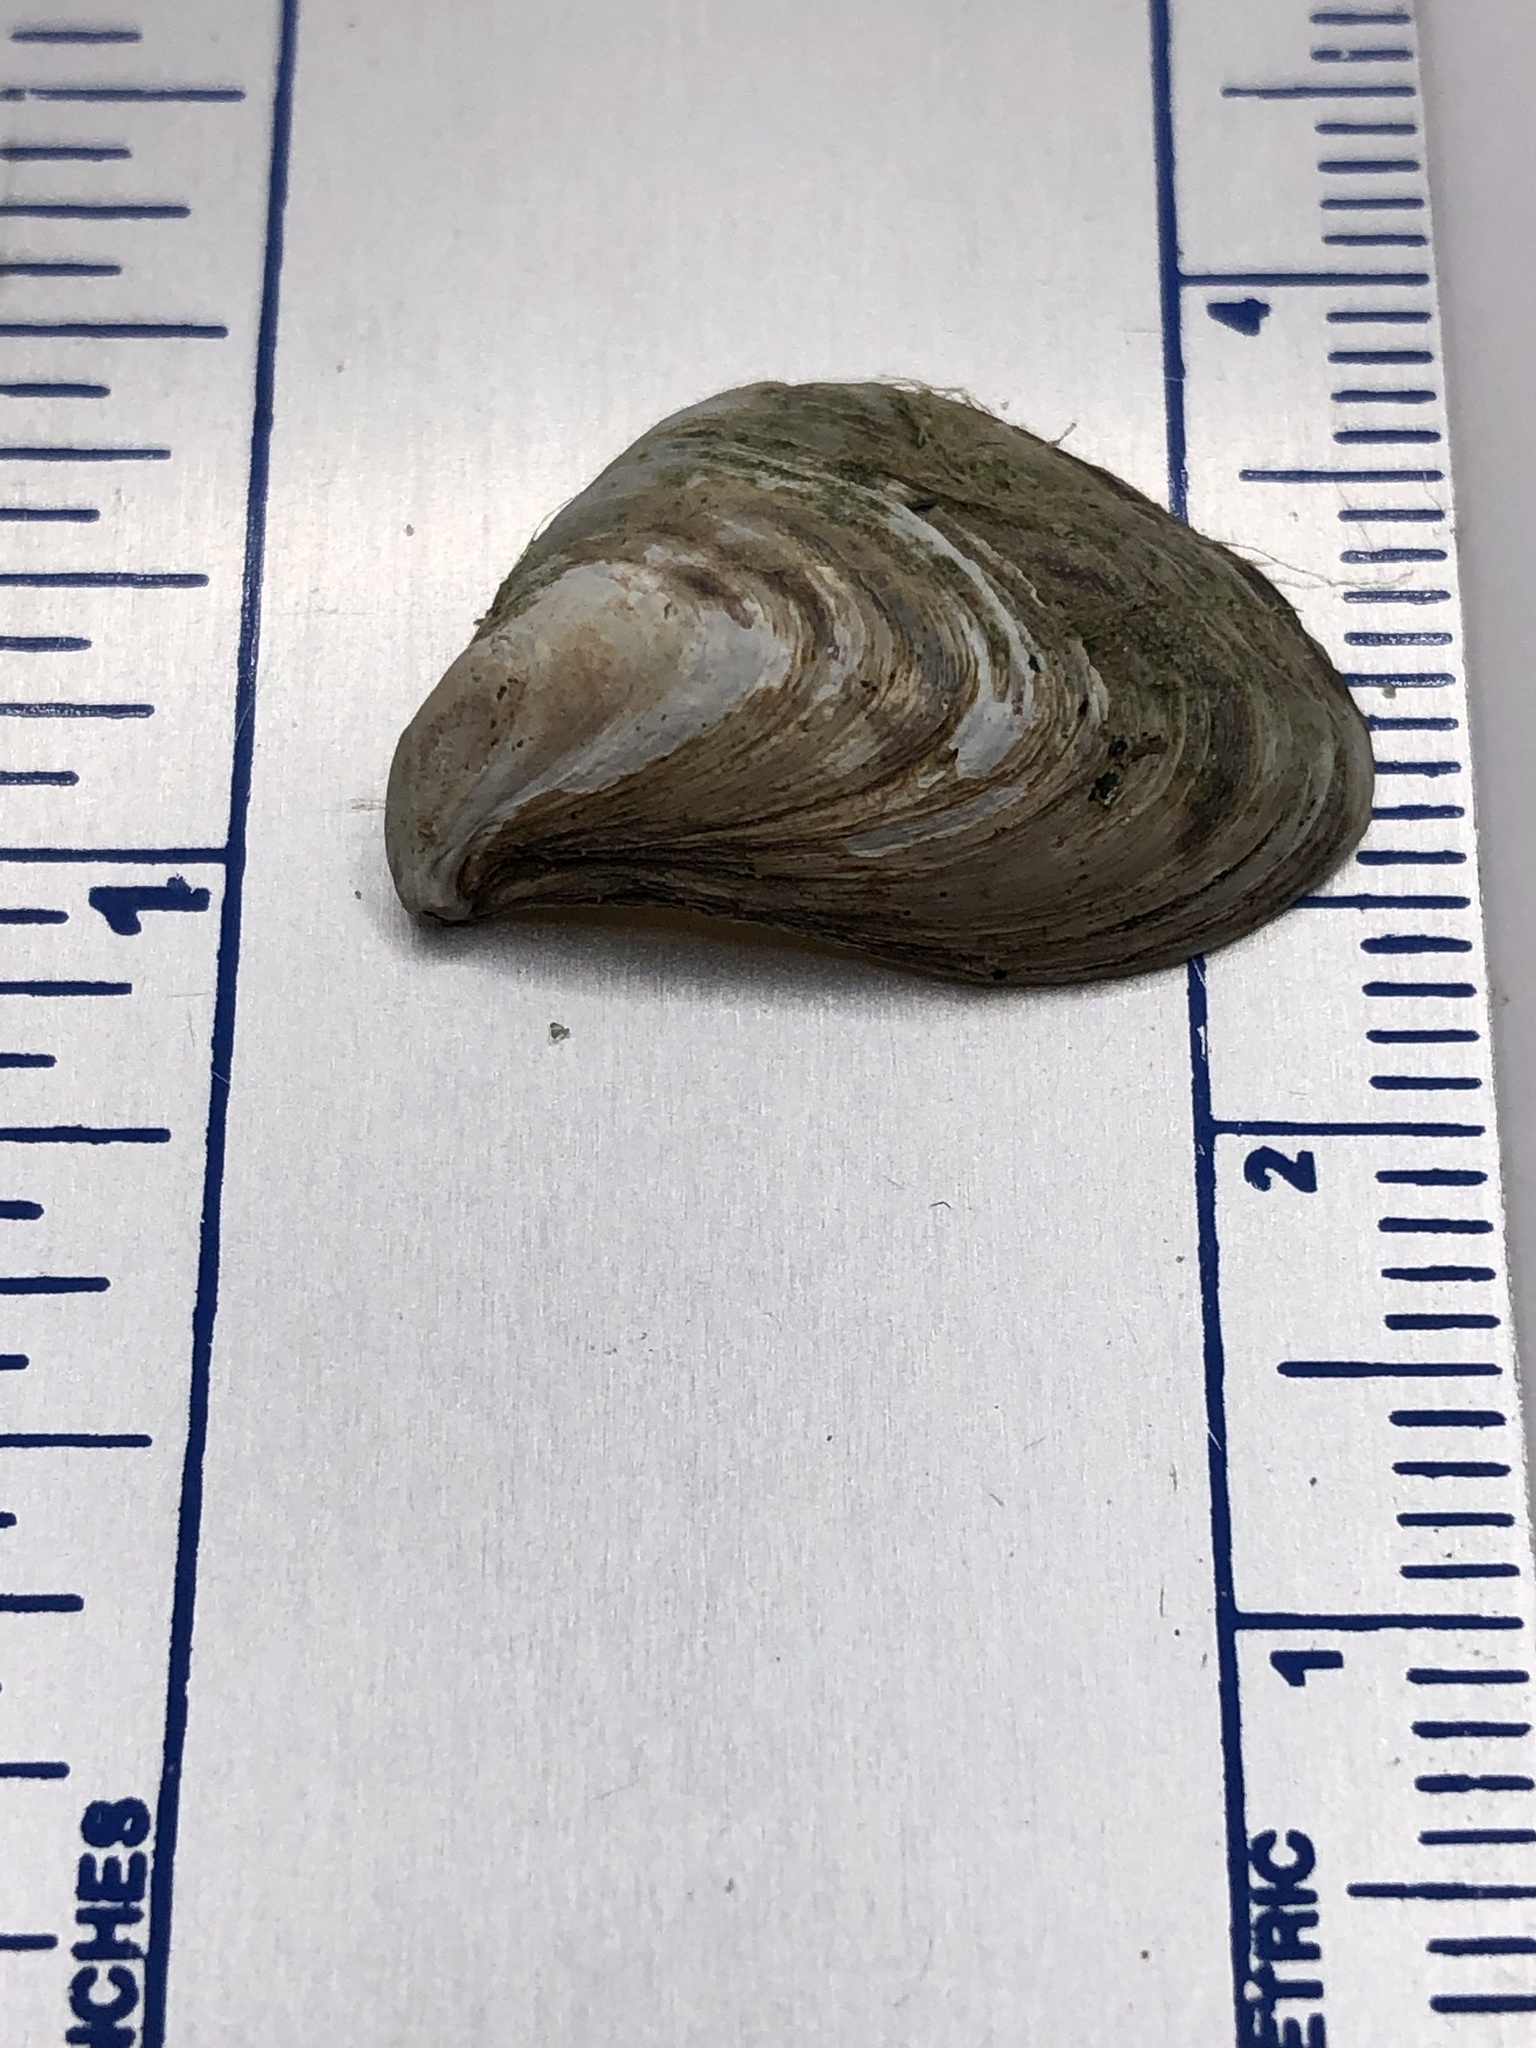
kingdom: Animalia
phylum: Mollusca
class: Bivalvia
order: Myida
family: Dreissenidae
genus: Dreissena
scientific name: Dreissena bugensis
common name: Quagga mussel
